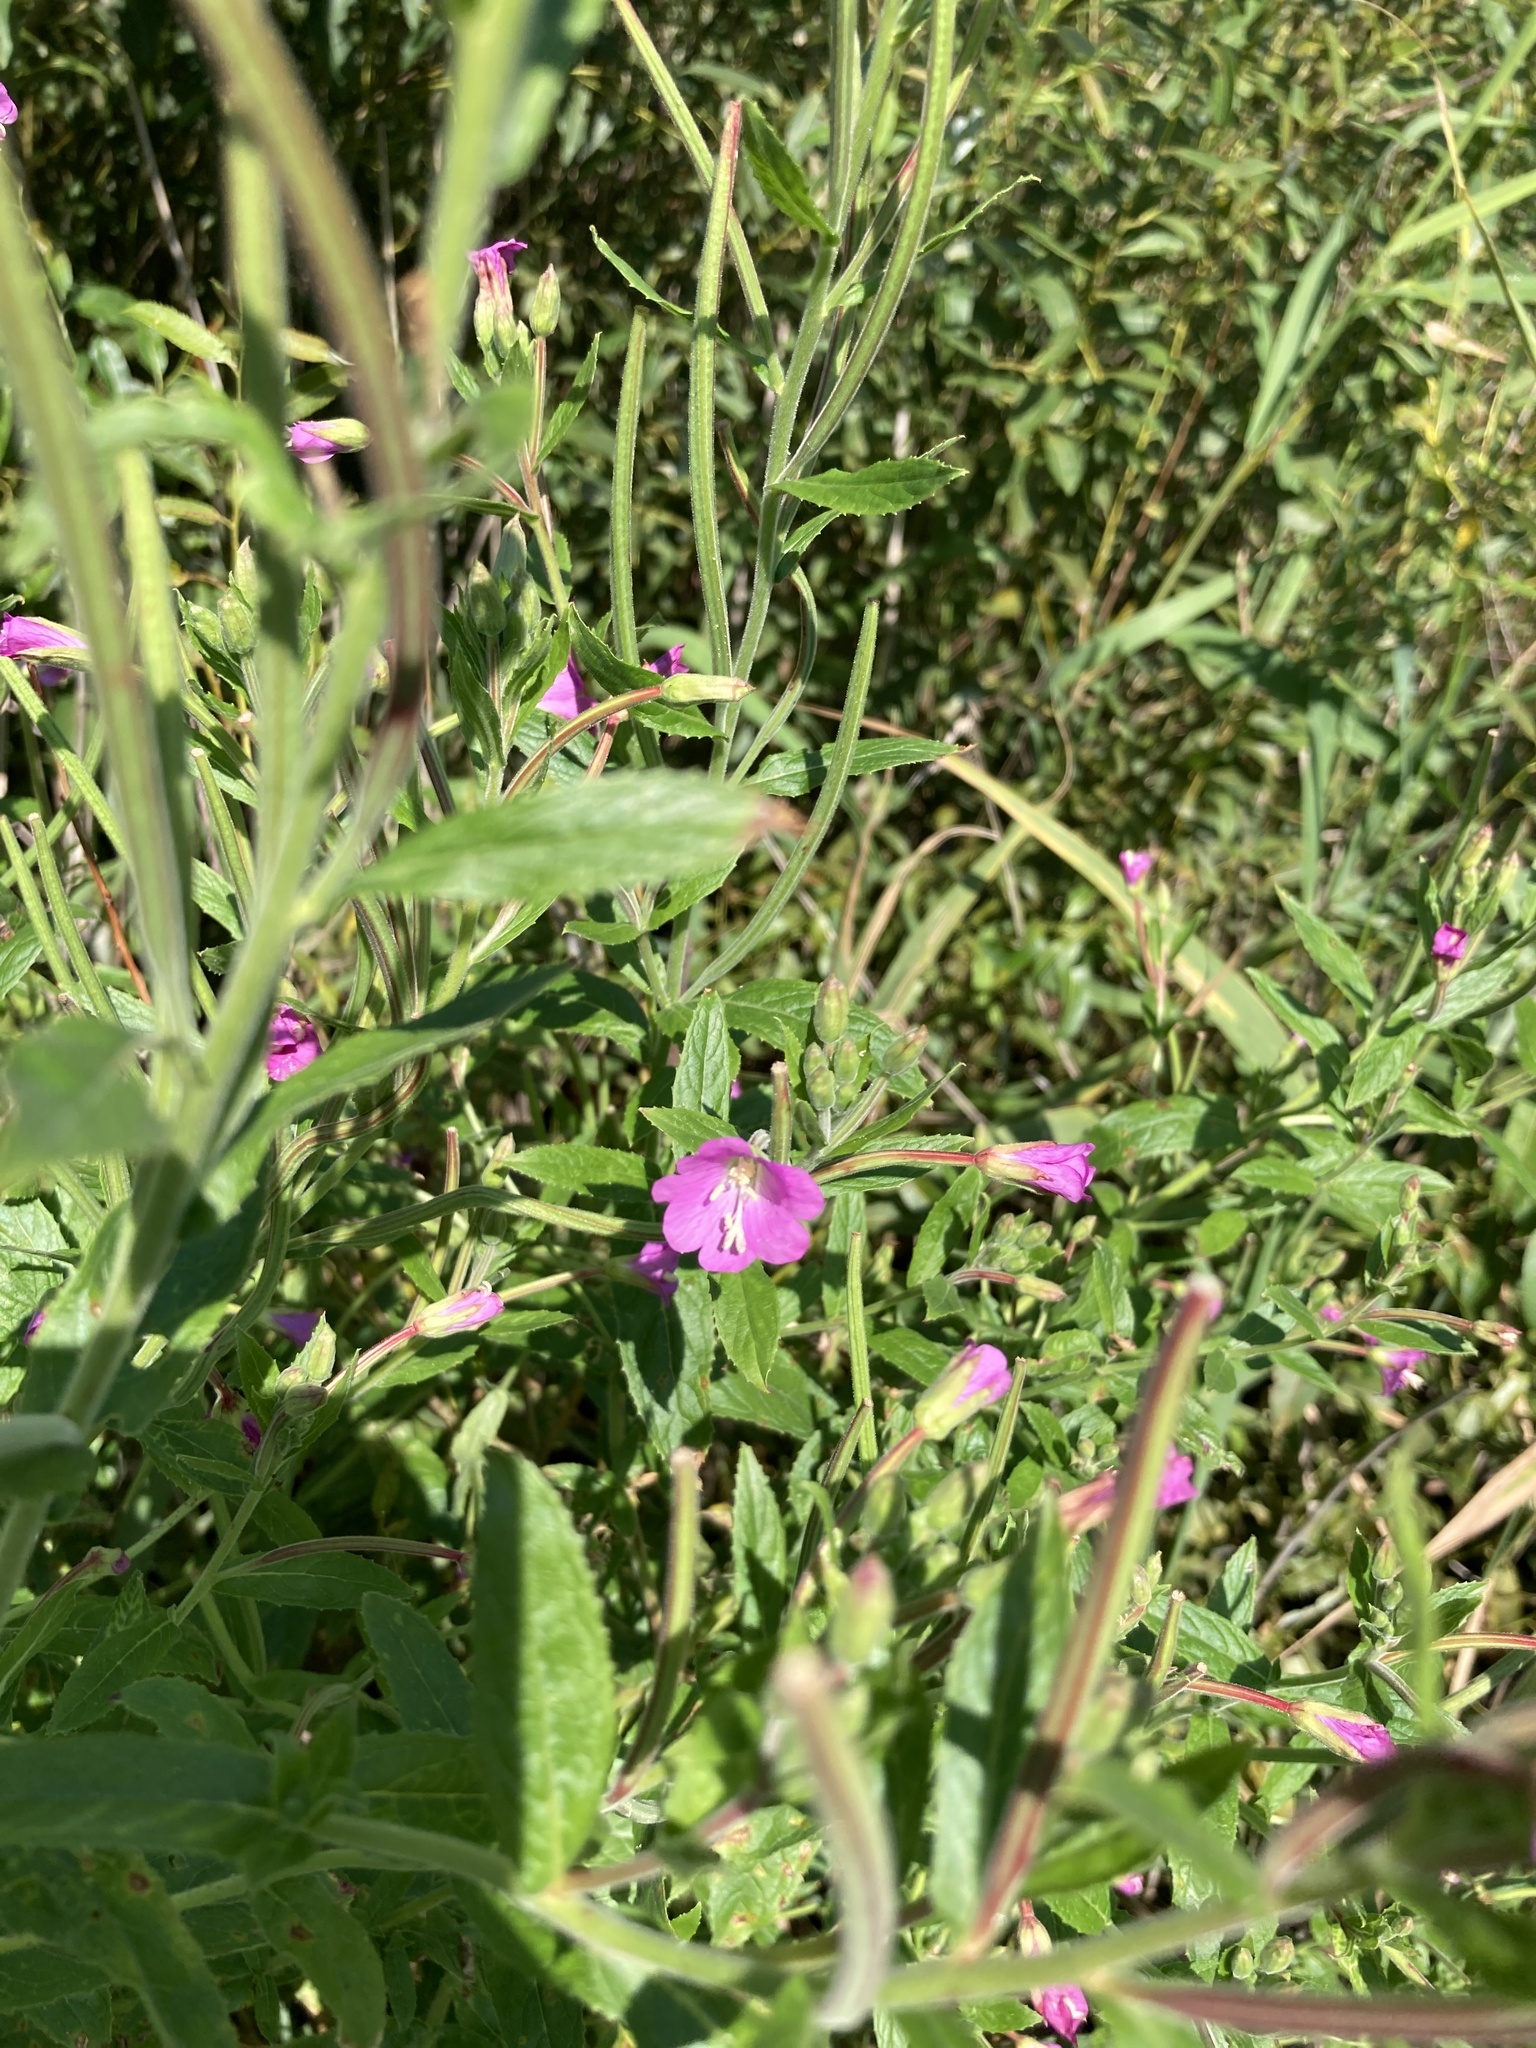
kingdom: Plantae
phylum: Tracheophyta
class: Magnoliopsida
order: Myrtales
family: Onagraceae
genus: Epilobium
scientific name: Epilobium hirsutum
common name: Great willowherb
